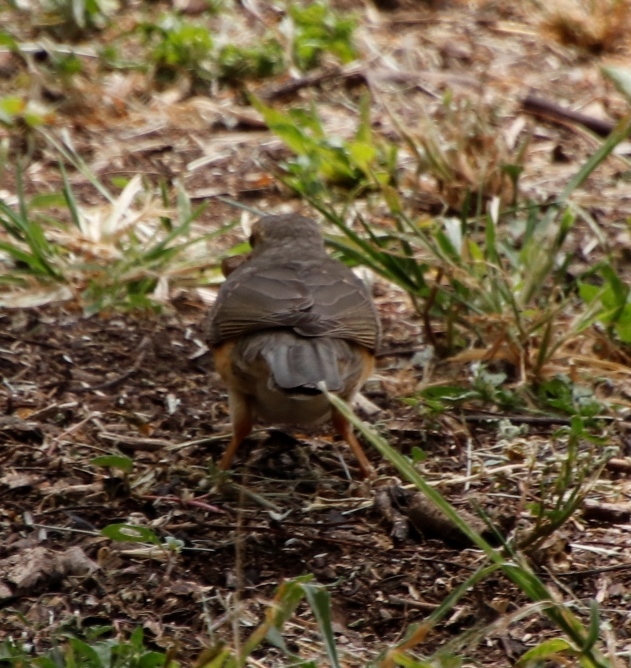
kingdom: Animalia
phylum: Chordata
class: Aves
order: Passeriformes
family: Turdidae
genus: Turdus
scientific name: Turdus libonyana
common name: Kurrichane thrush
